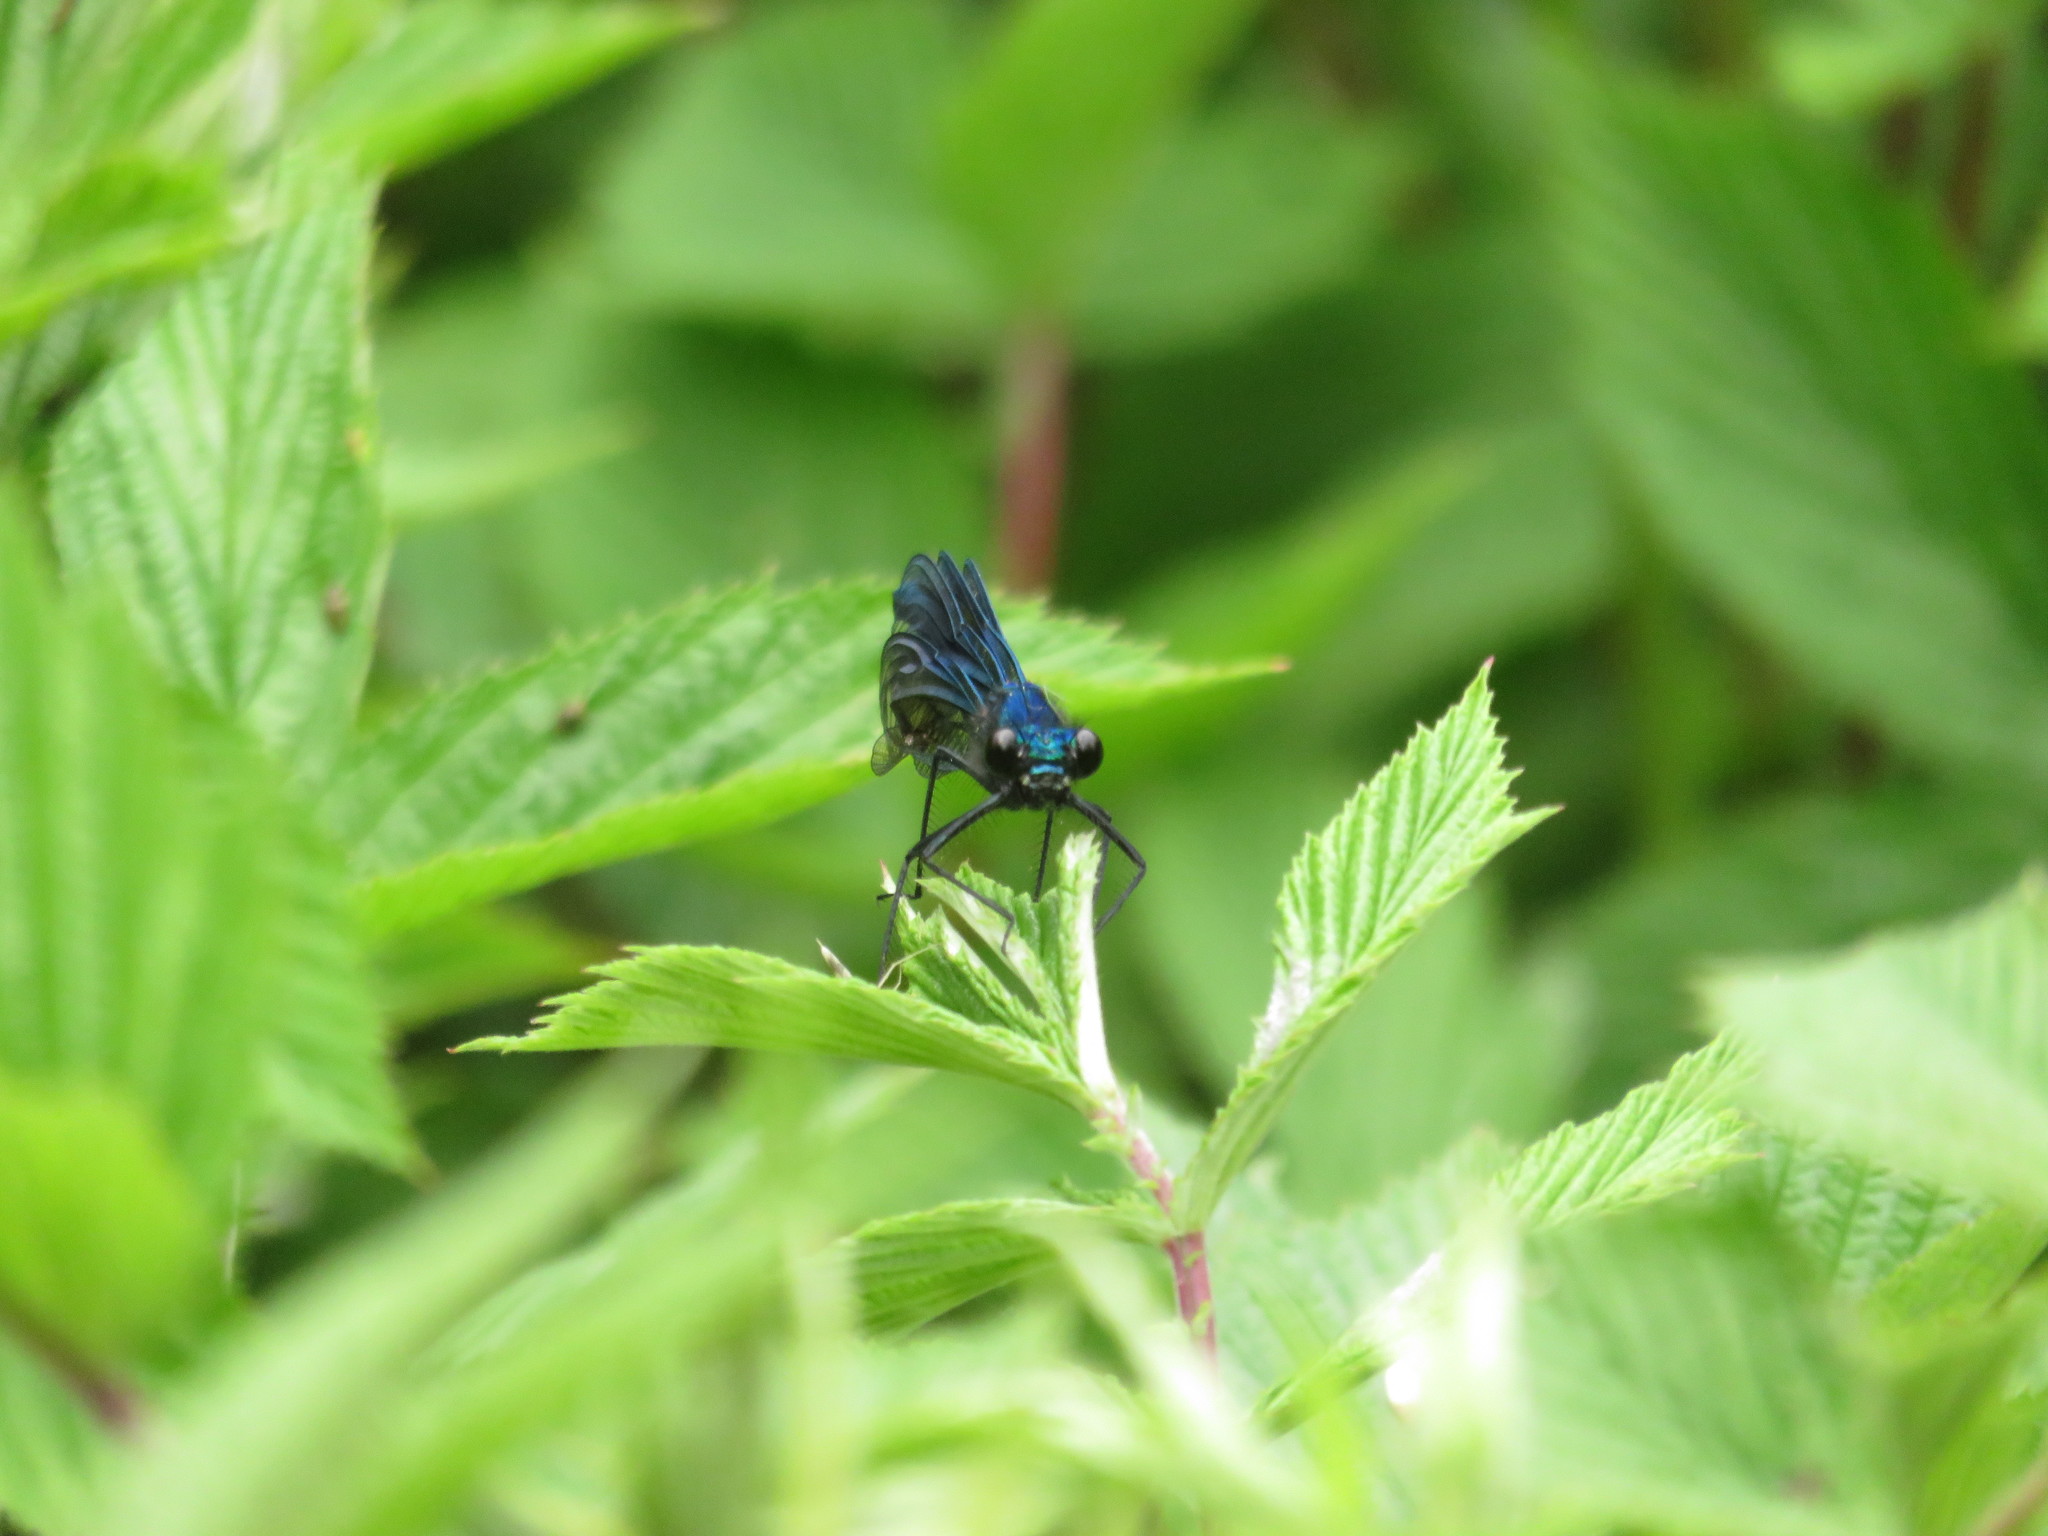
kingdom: Animalia
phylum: Arthropoda
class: Insecta
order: Odonata
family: Calopterygidae
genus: Calopteryx
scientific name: Calopteryx splendens
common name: Banded demoiselle
